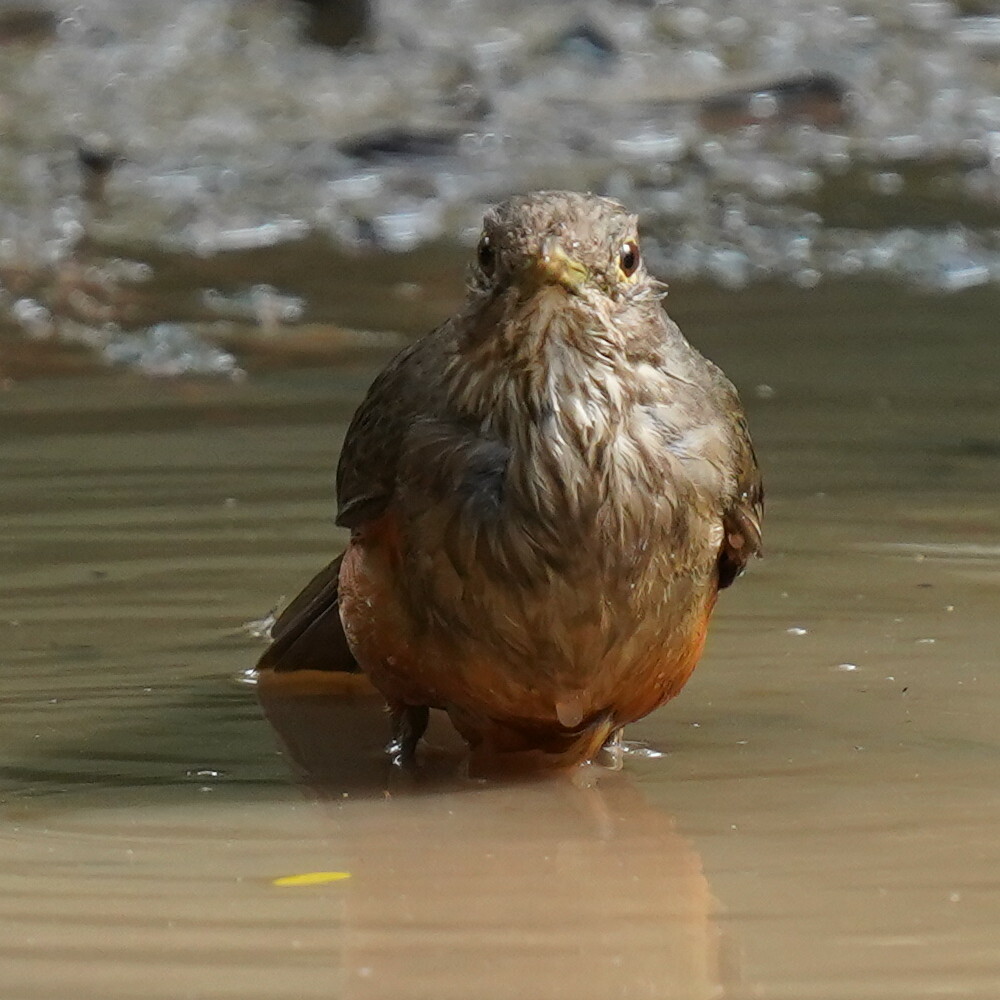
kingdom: Animalia
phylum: Chordata
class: Aves
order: Passeriformes
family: Turdidae
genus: Turdus
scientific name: Turdus rufiventris
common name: Rufous-bellied thrush
